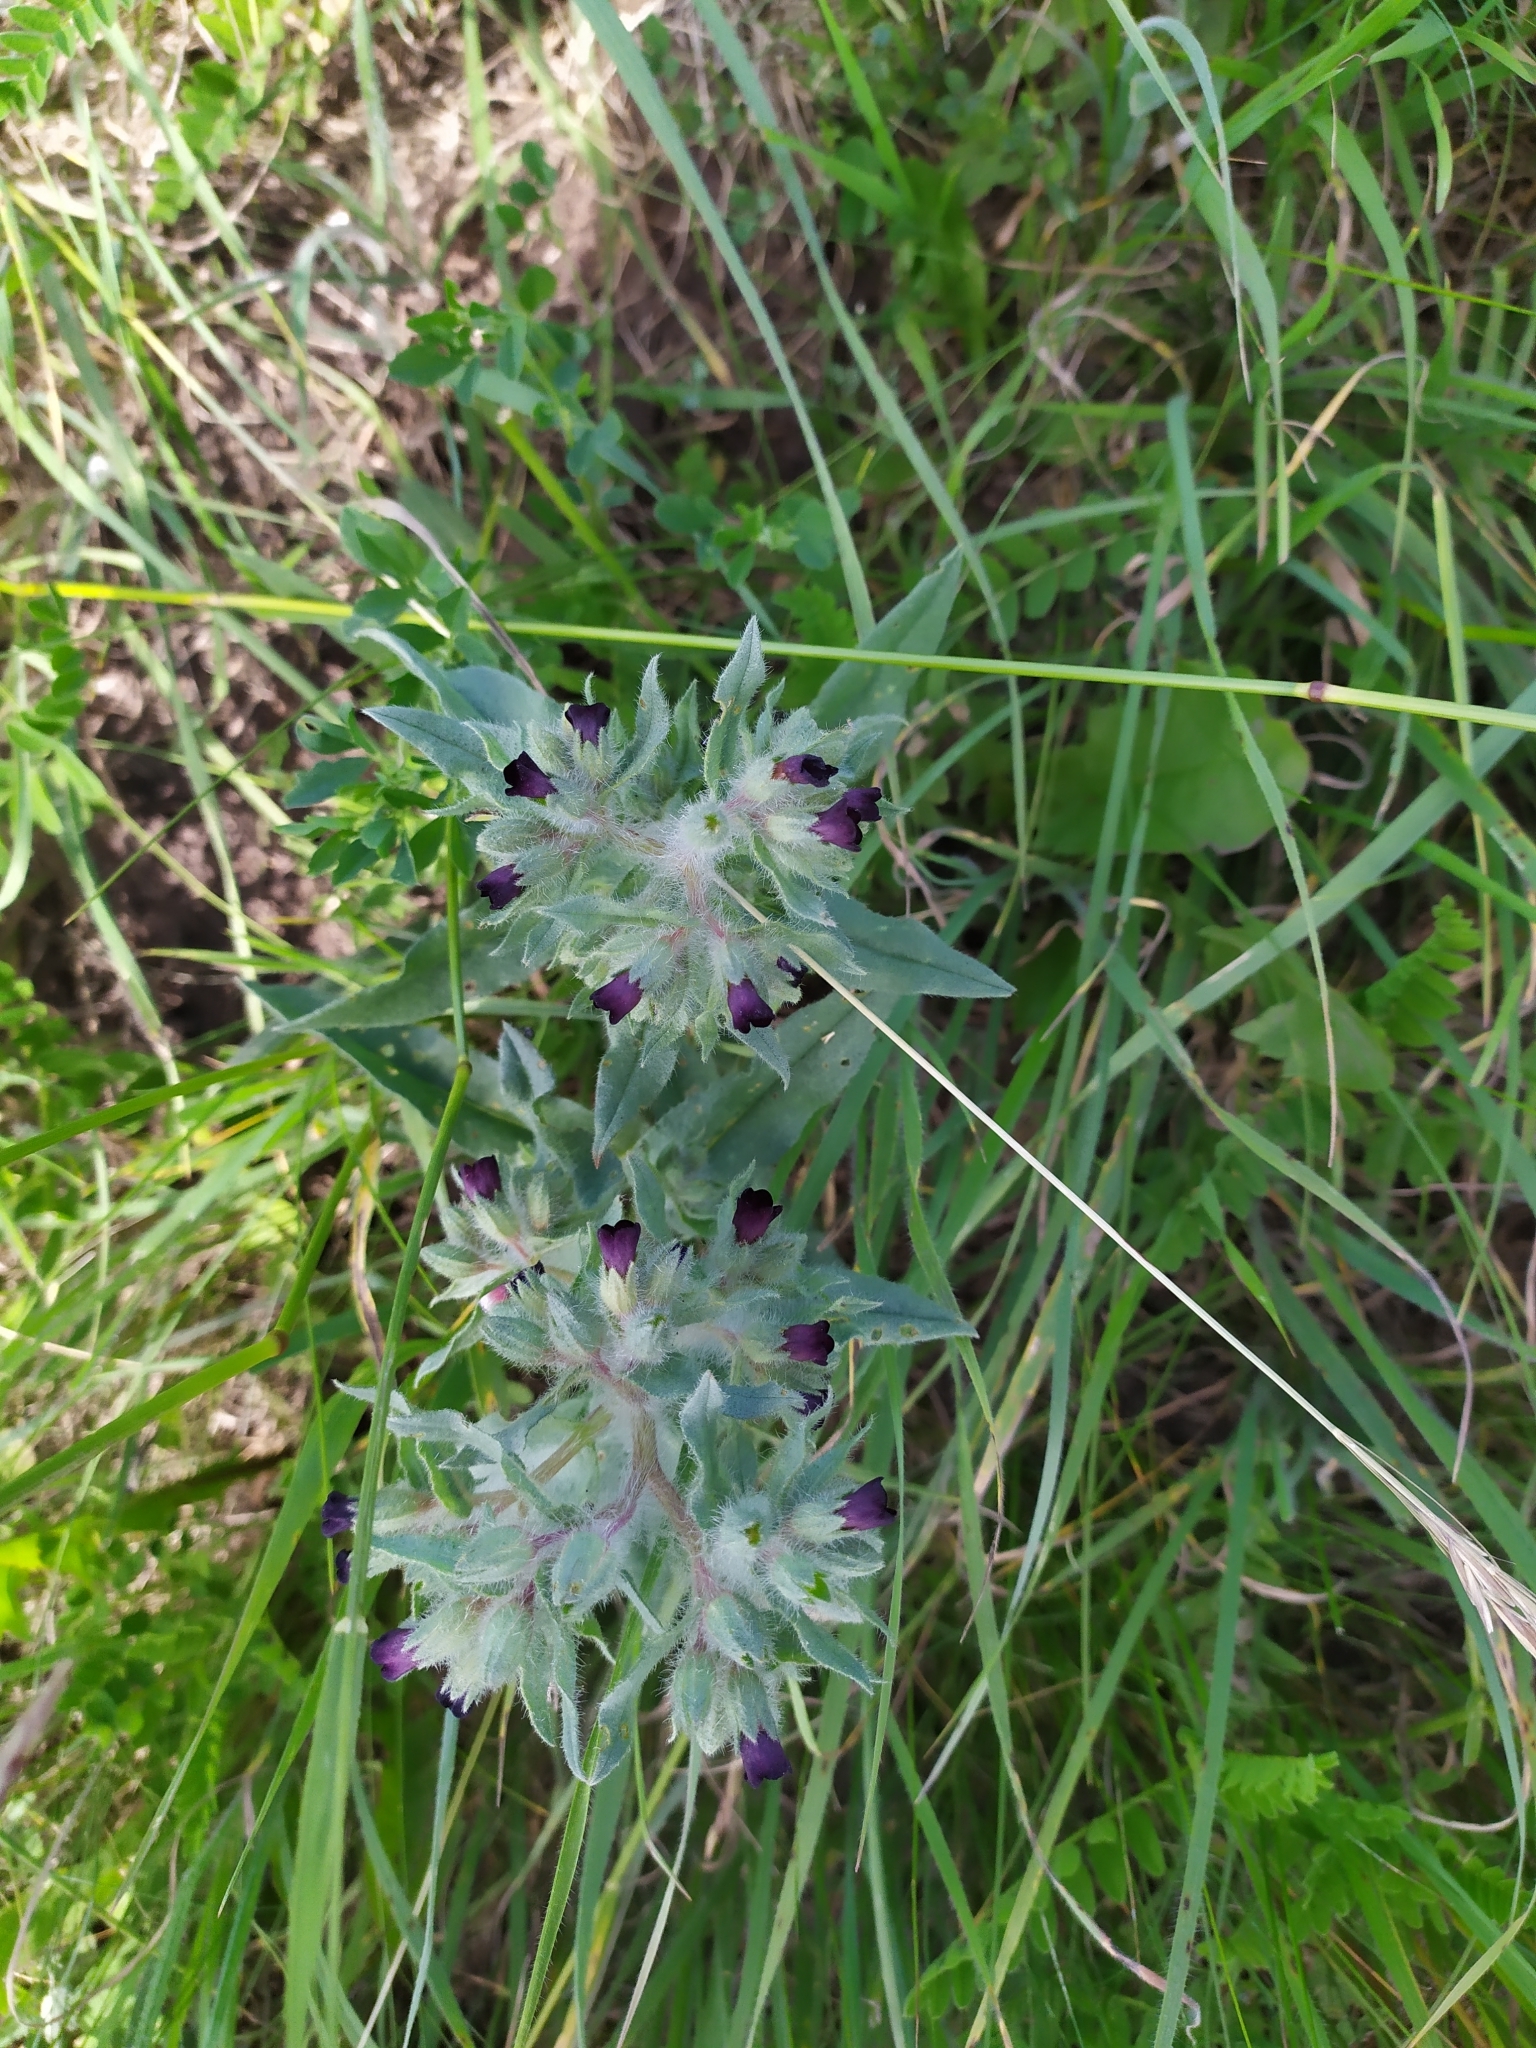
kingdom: Plantae
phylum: Tracheophyta
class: Magnoliopsida
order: Boraginales
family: Boraginaceae
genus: Nonea
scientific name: Nonea pulla
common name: Brown nonea
